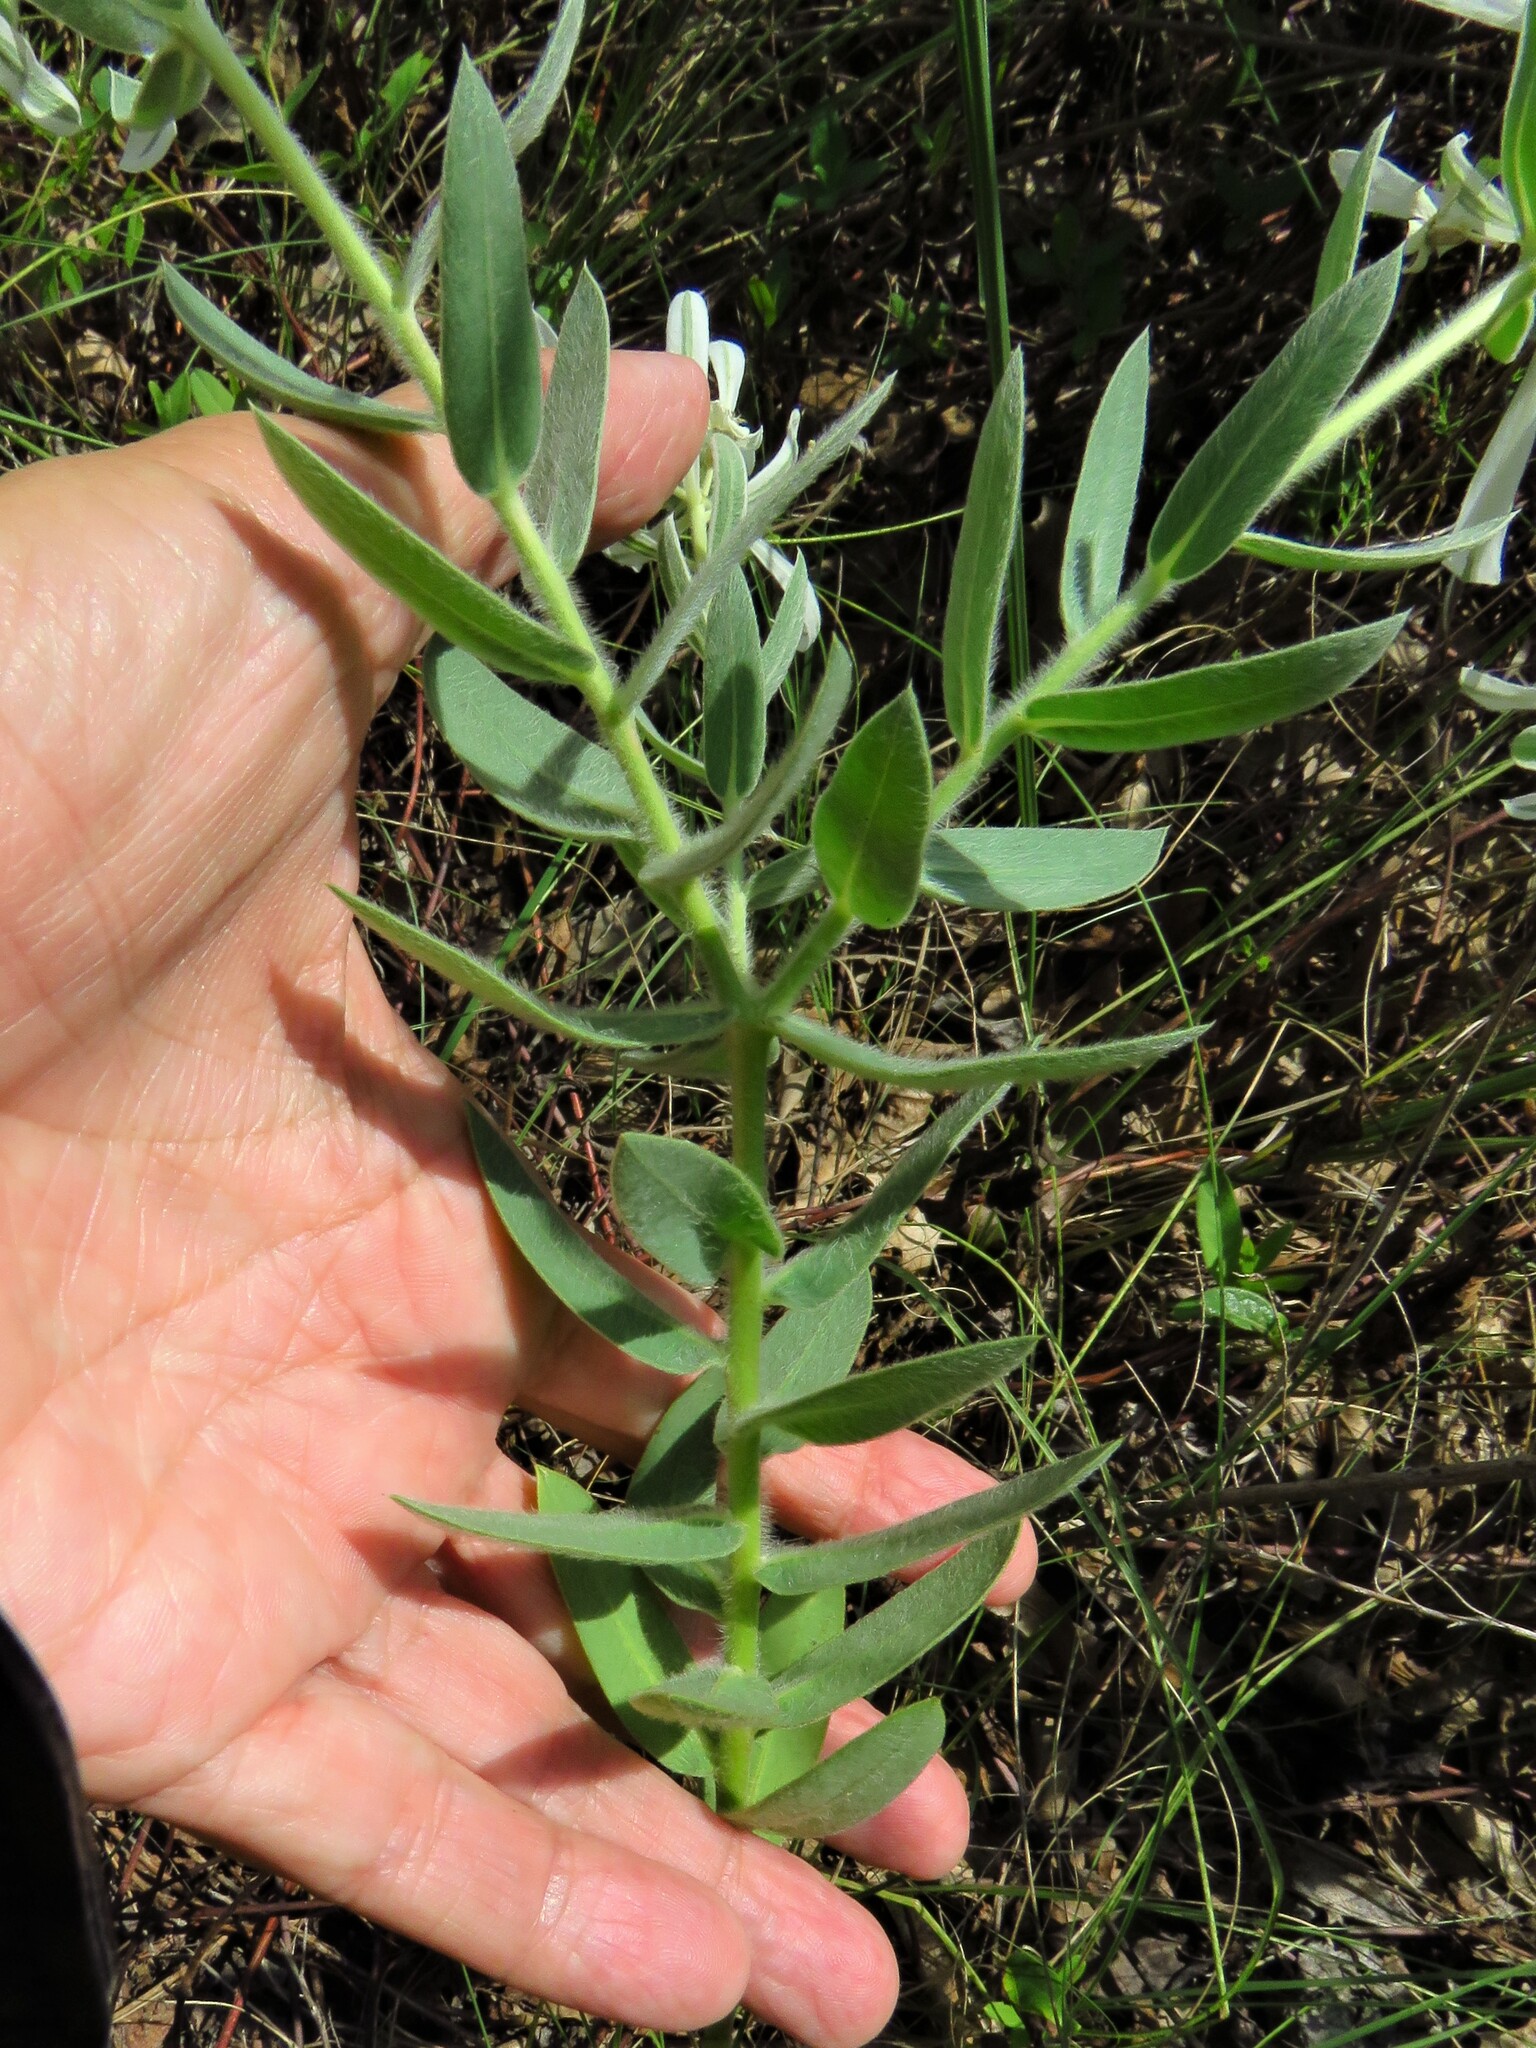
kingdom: Plantae
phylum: Tracheophyta
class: Magnoliopsida
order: Malpighiales
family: Euphorbiaceae
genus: Euphorbia
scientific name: Euphorbia bicolor
